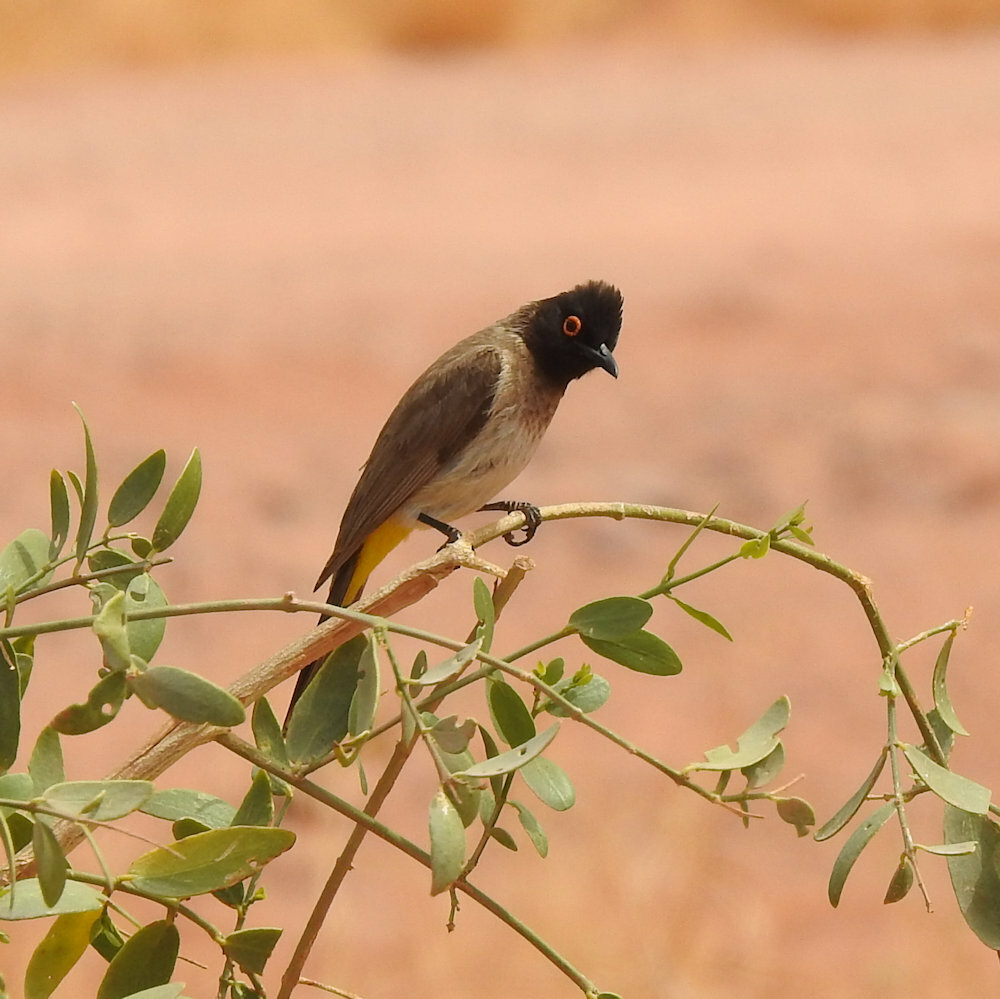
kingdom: Animalia
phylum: Chordata
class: Aves
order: Passeriformes
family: Pycnonotidae
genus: Pycnonotus
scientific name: Pycnonotus nigricans
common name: African red-eyed bulbul
